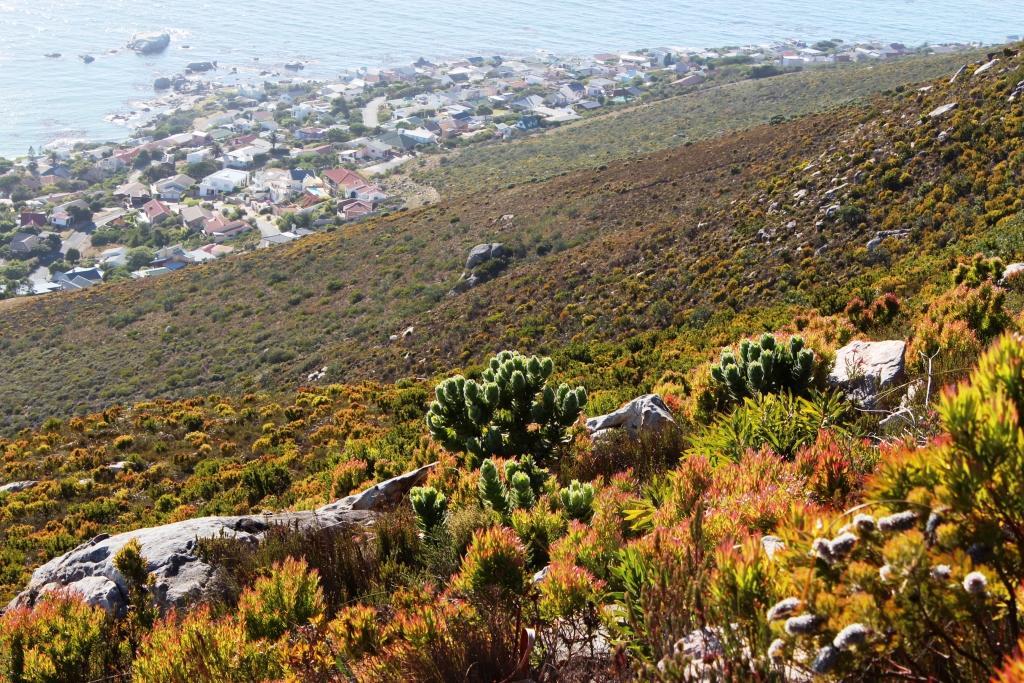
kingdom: Plantae
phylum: Tracheophyta
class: Magnoliopsida
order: Proteales
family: Proteaceae
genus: Leucospermum
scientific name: Leucospermum conocarpodendron
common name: Tree pincushion
